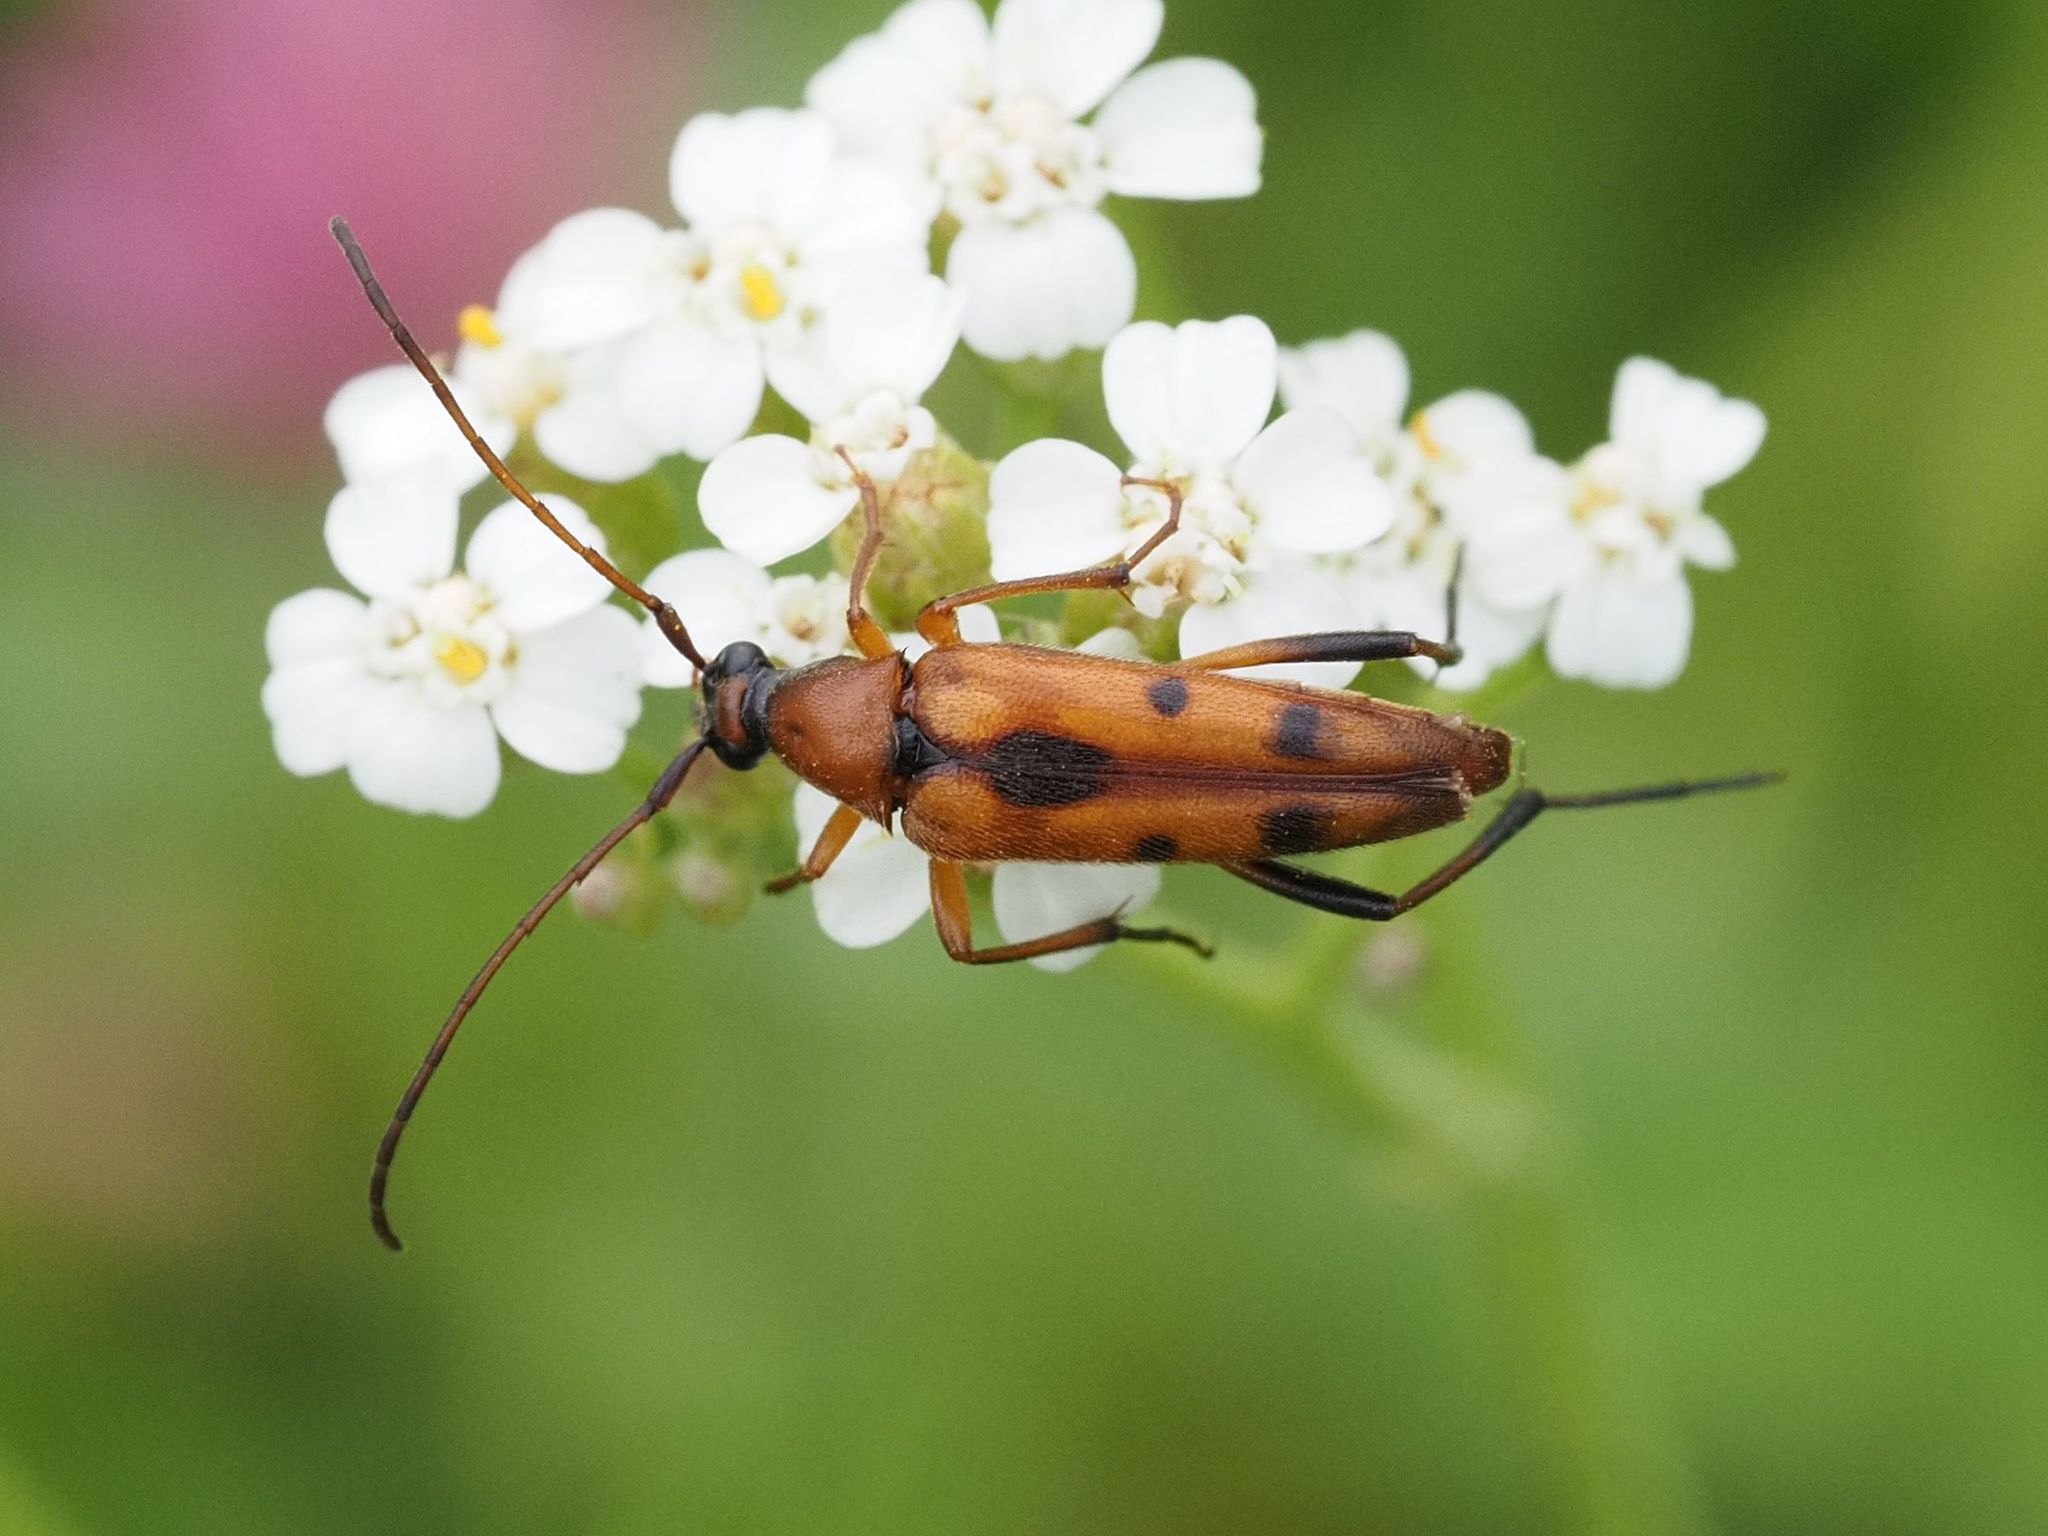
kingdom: Animalia
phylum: Arthropoda
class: Insecta
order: Coleoptera
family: Cerambycidae
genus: Stenurella
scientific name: Stenurella septempunctata
